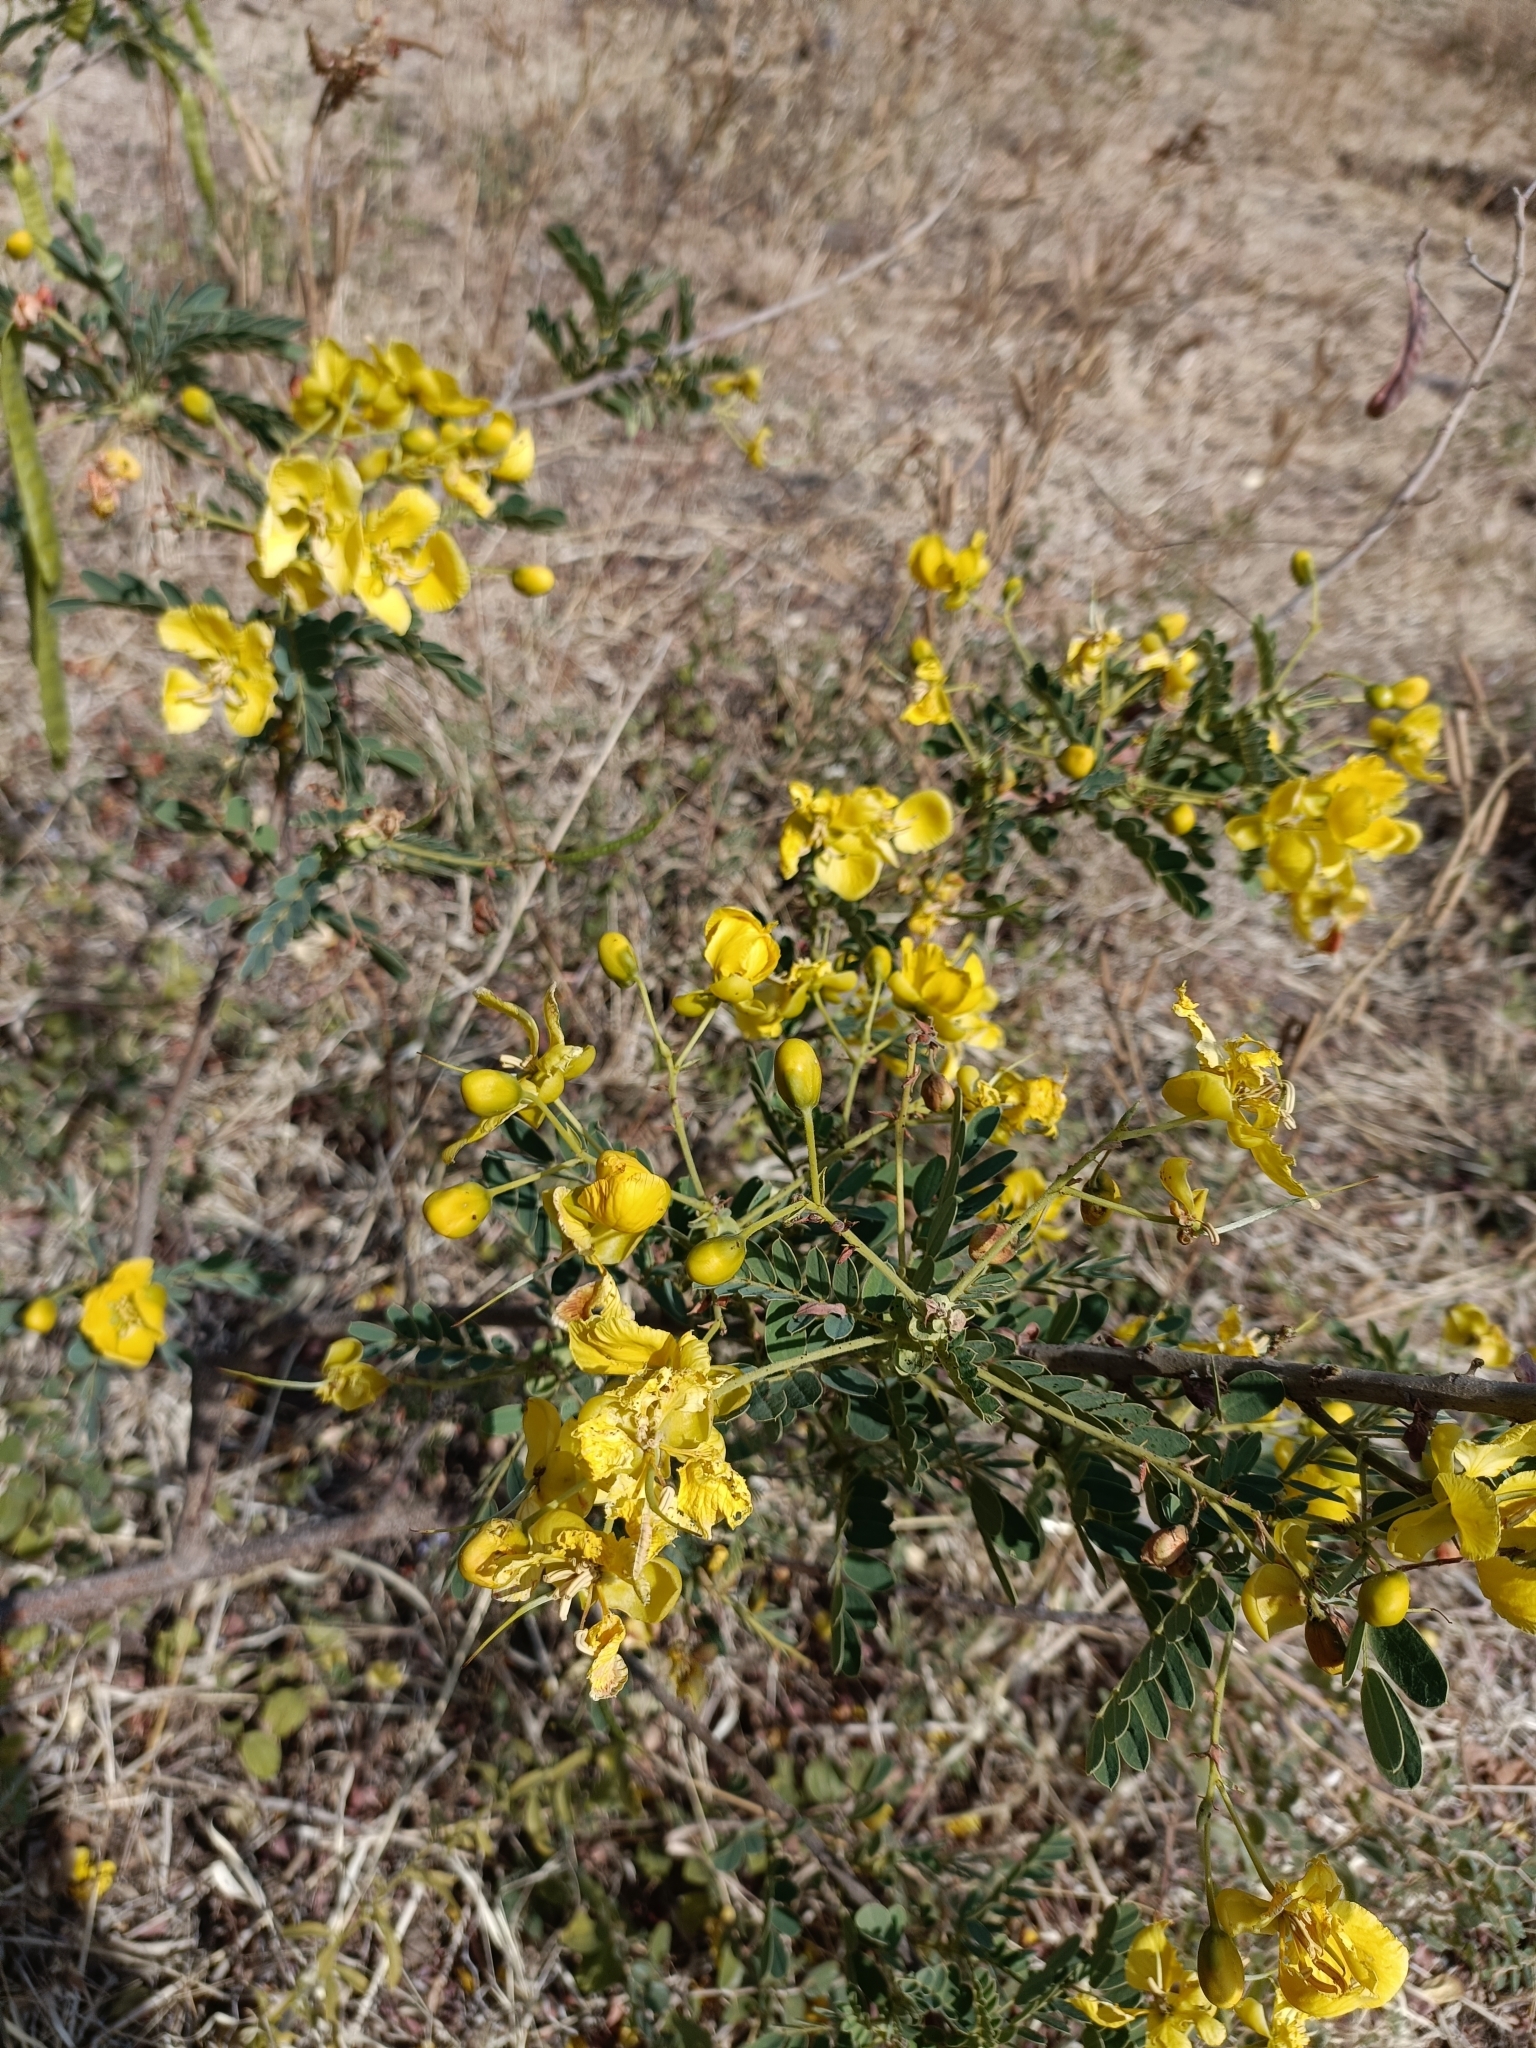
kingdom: Plantae
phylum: Tracheophyta
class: Magnoliopsida
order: Fabales
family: Fabaceae
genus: Senna
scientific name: Senna auriculata
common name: Tanner's cassia
